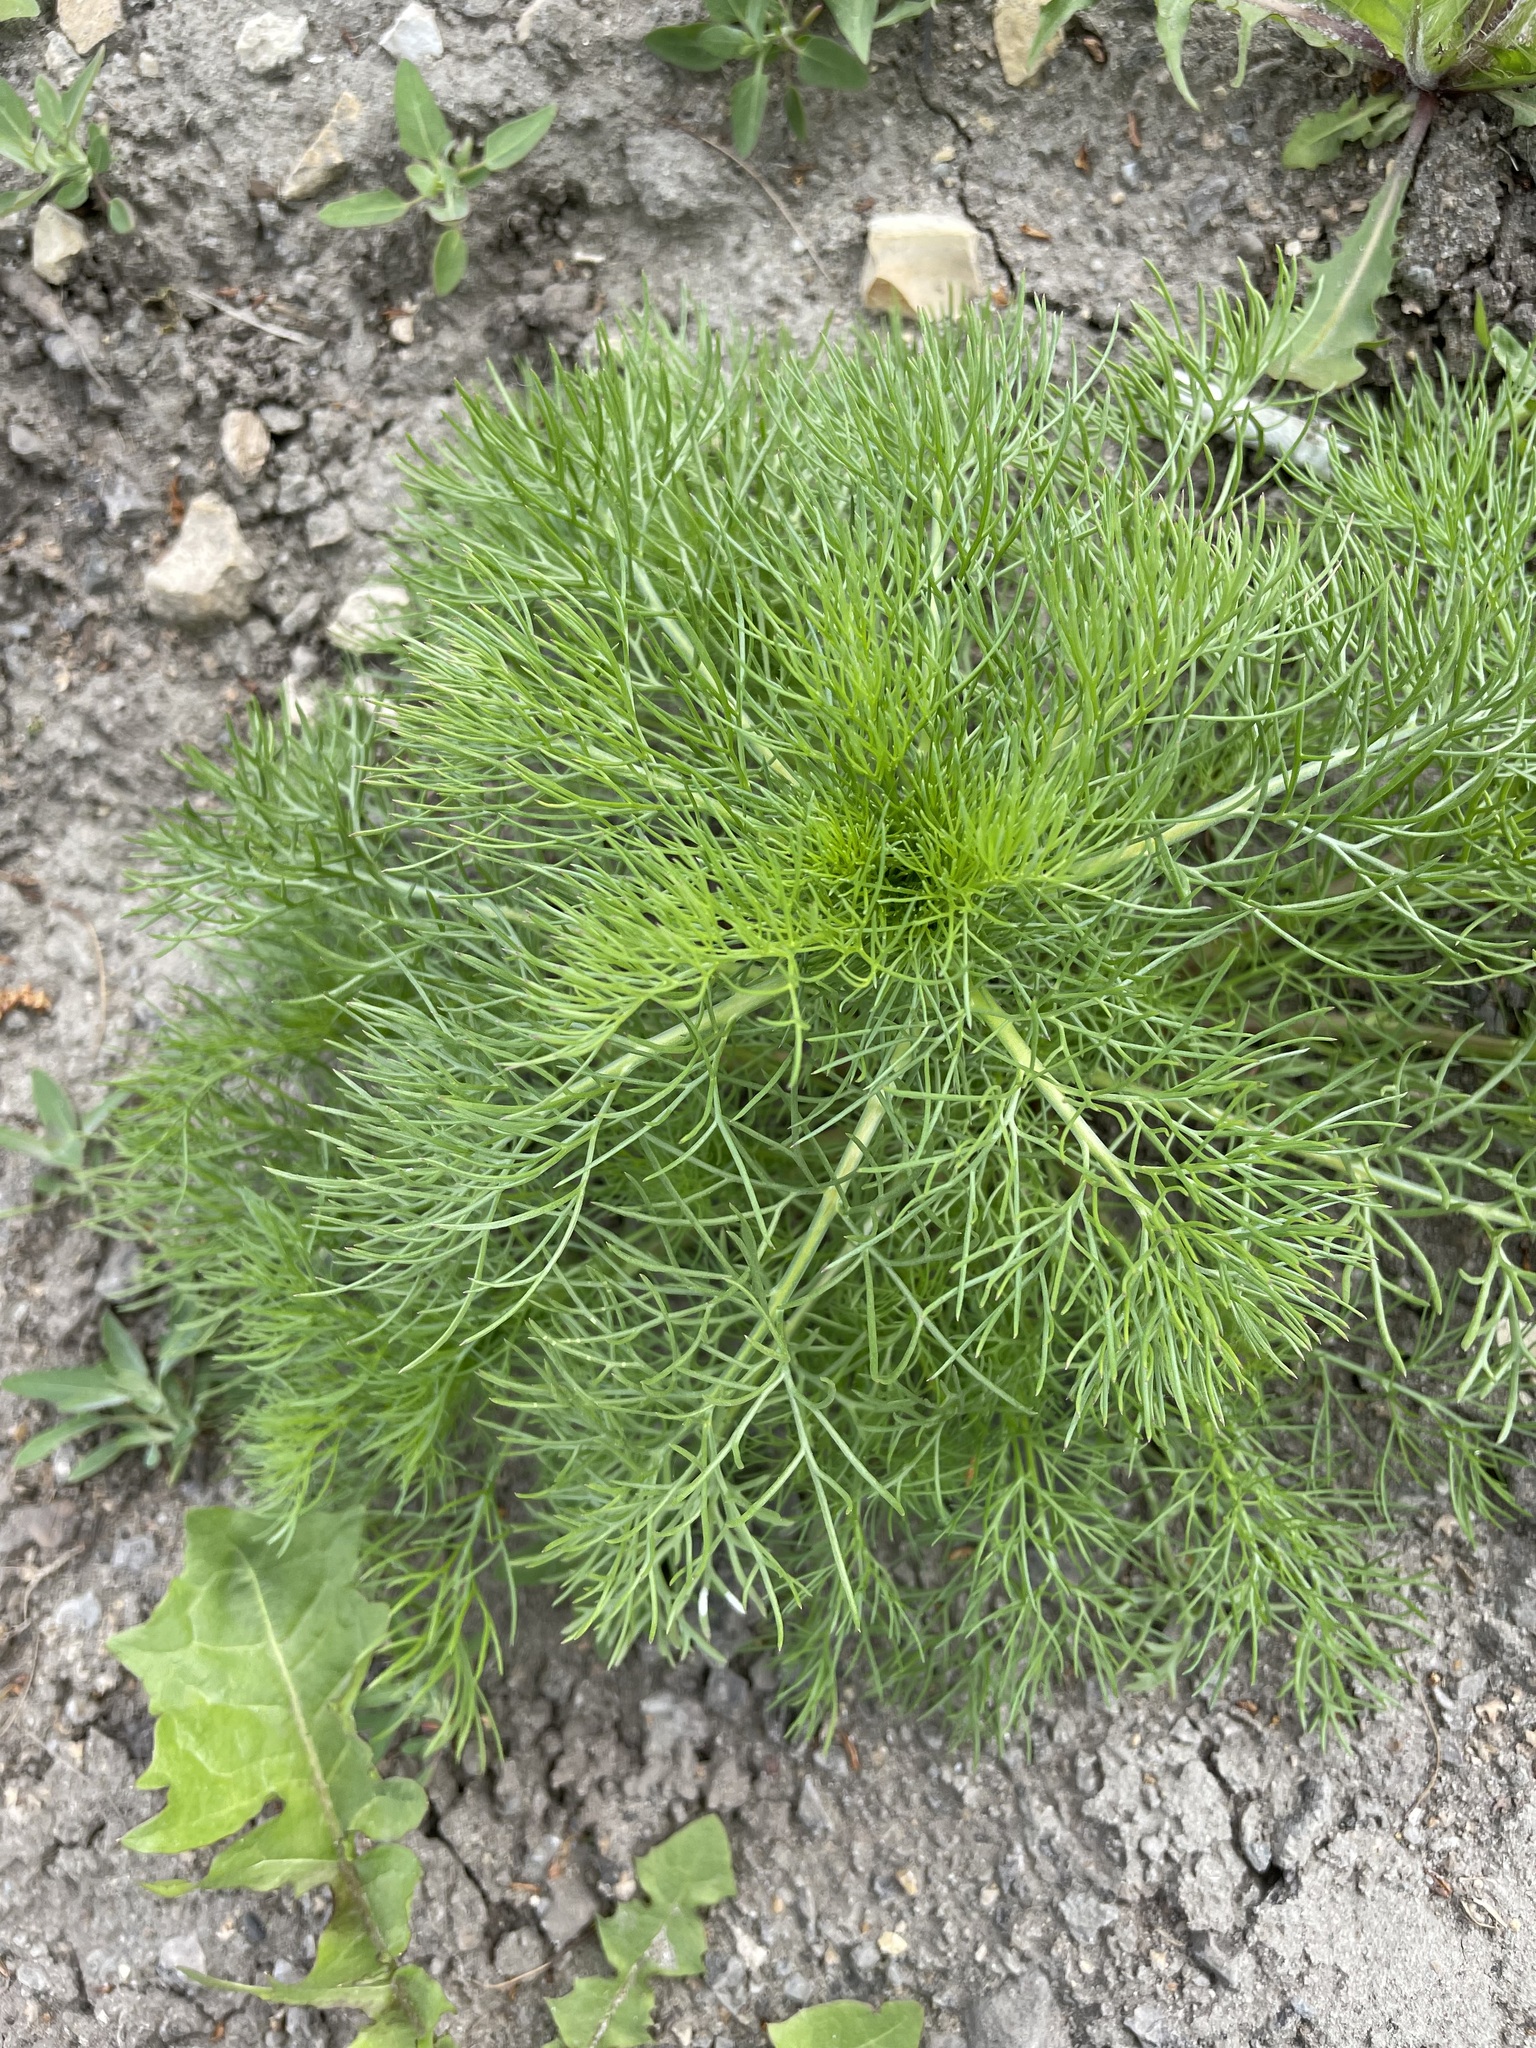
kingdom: Plantae
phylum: Tracheophyta
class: Magnoliopsida
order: Asterales
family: Asteraceae
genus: Tripleurospermum
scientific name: Tripleurospermum inodorum
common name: Scentless mayweed
